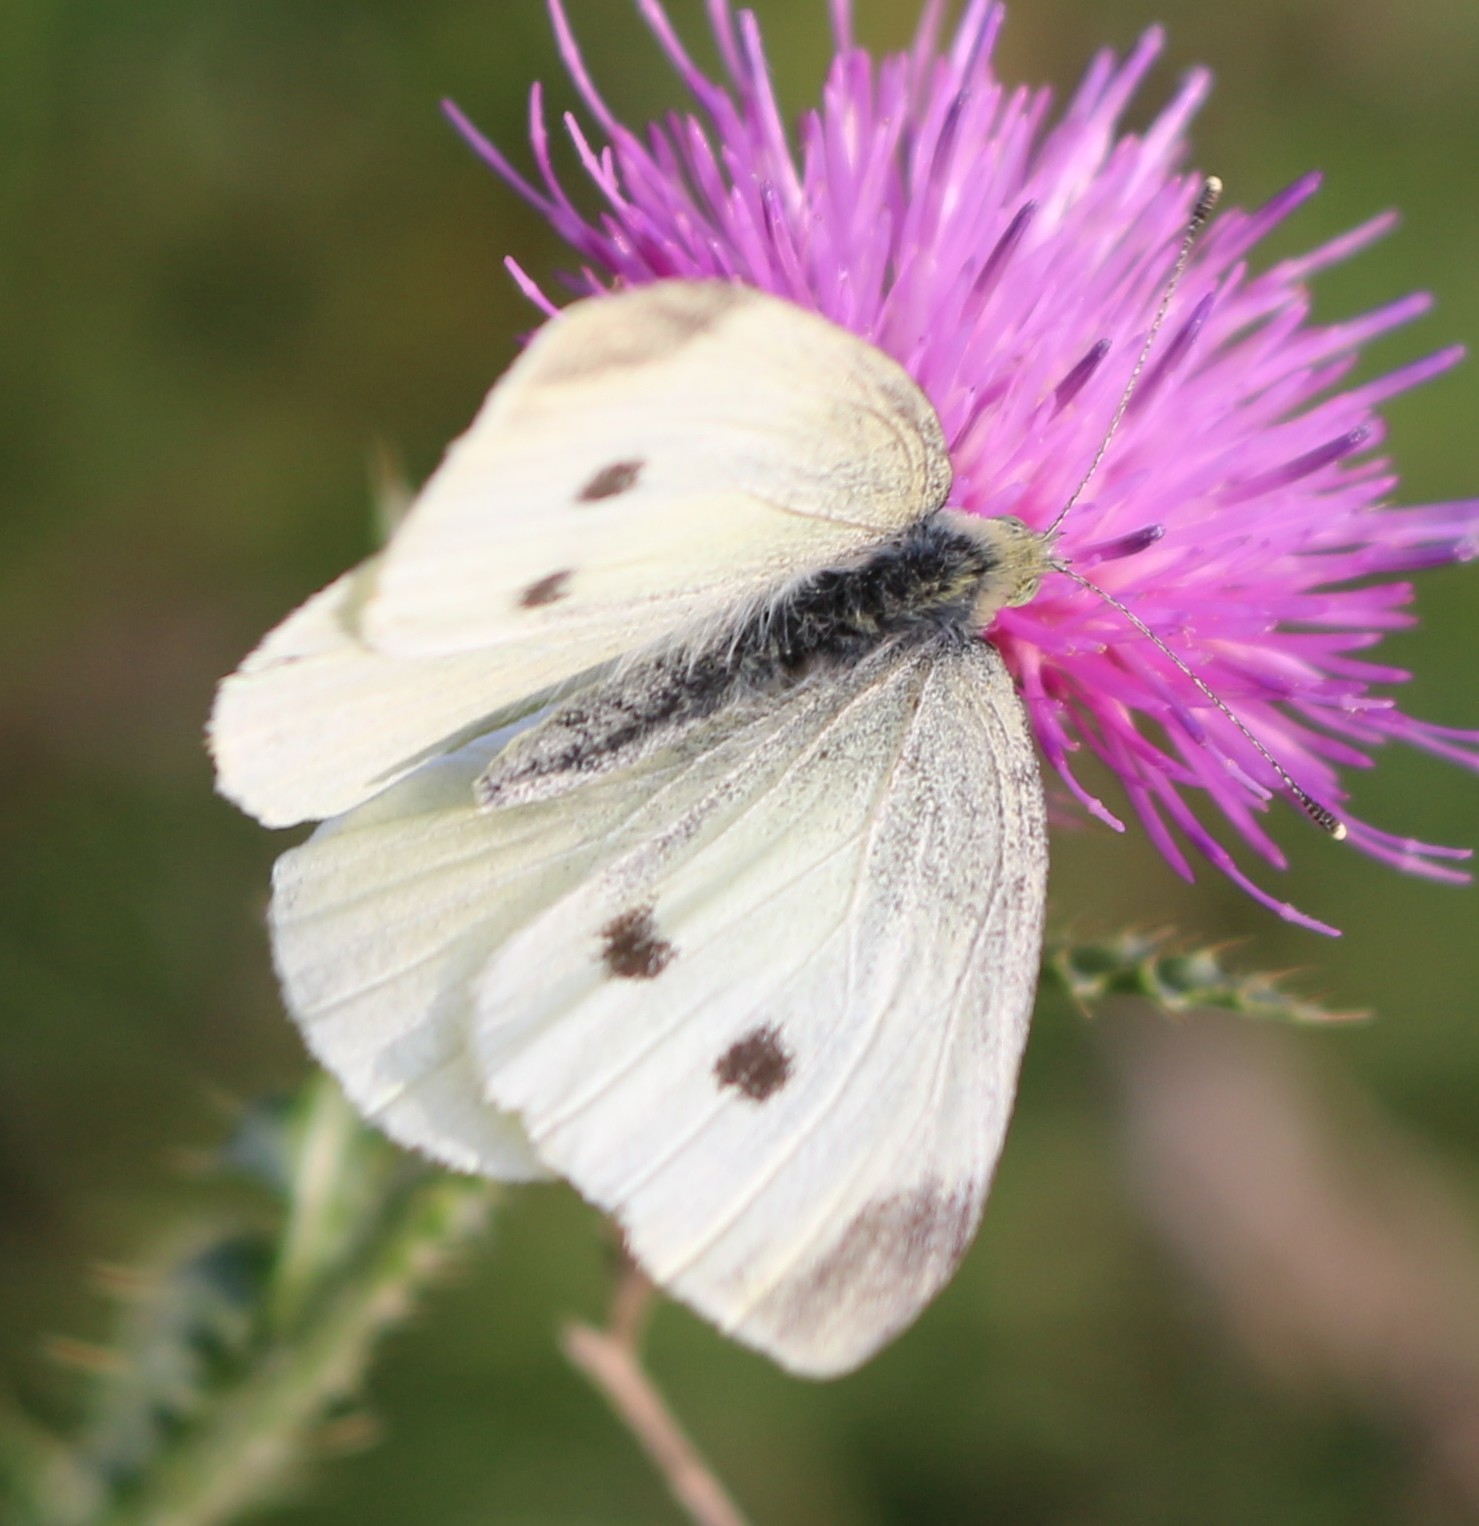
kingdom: Animalia
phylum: Arthropoda
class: Insecta
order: Lepidoptera
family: Pieridae
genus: Pieris
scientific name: Pieris rapae
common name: Small white
